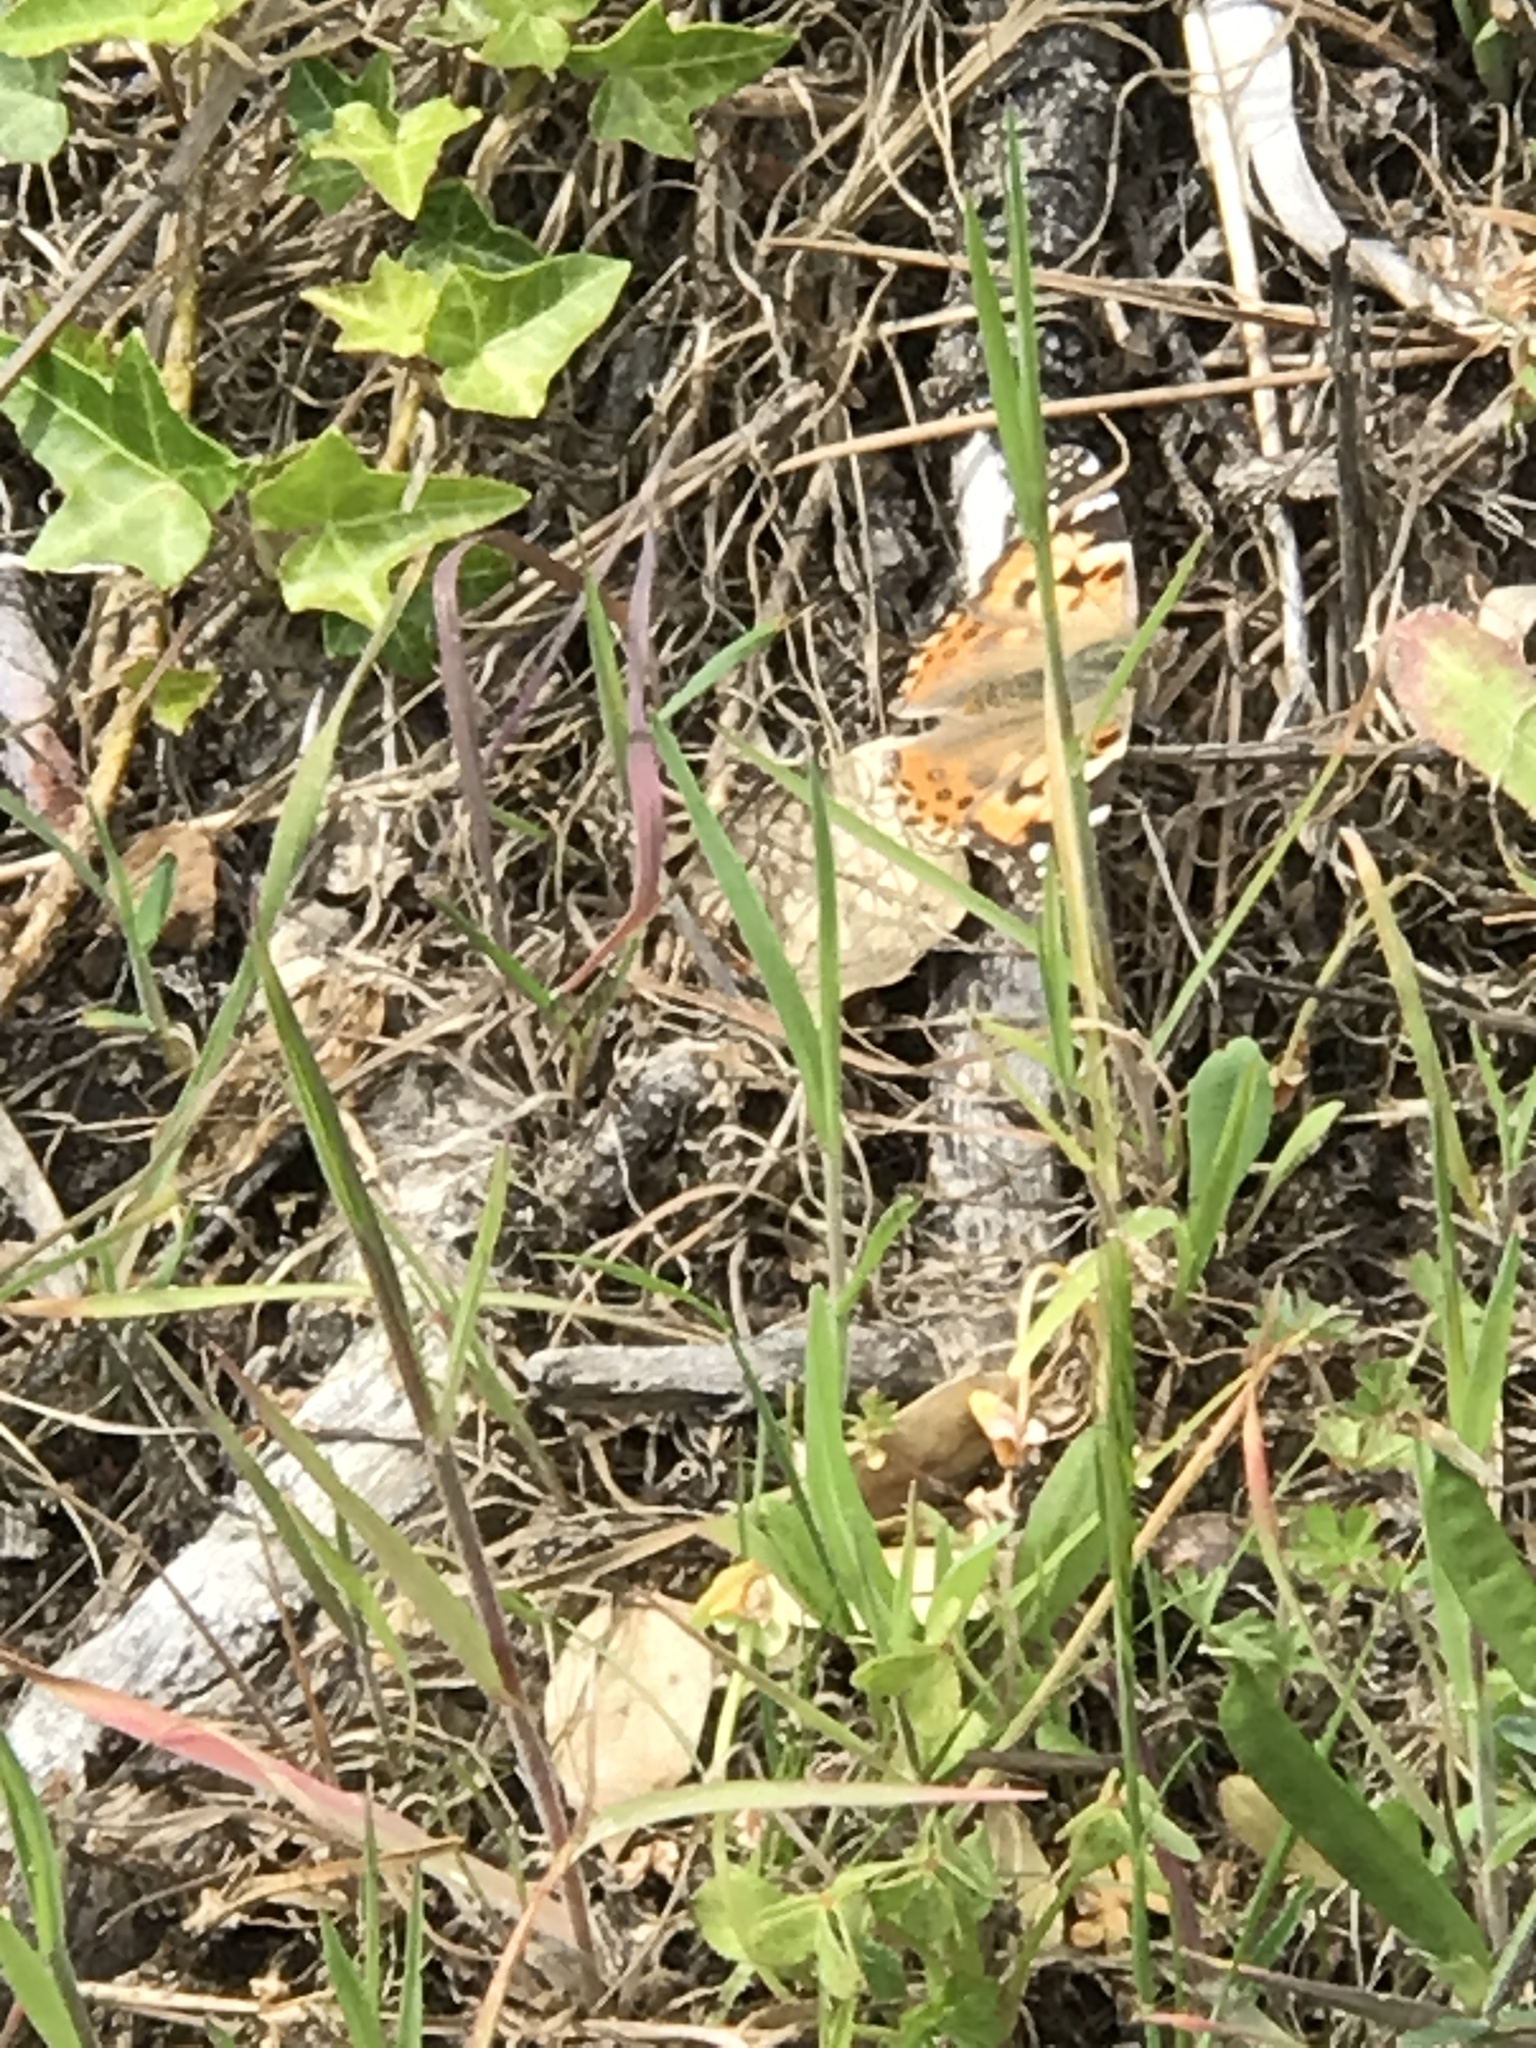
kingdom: Animalia
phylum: Arthropoda
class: Insecta
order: Lepidoptera
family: Nymphalidae
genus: Vanessa
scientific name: Vanessa cardui
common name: Painted lady
